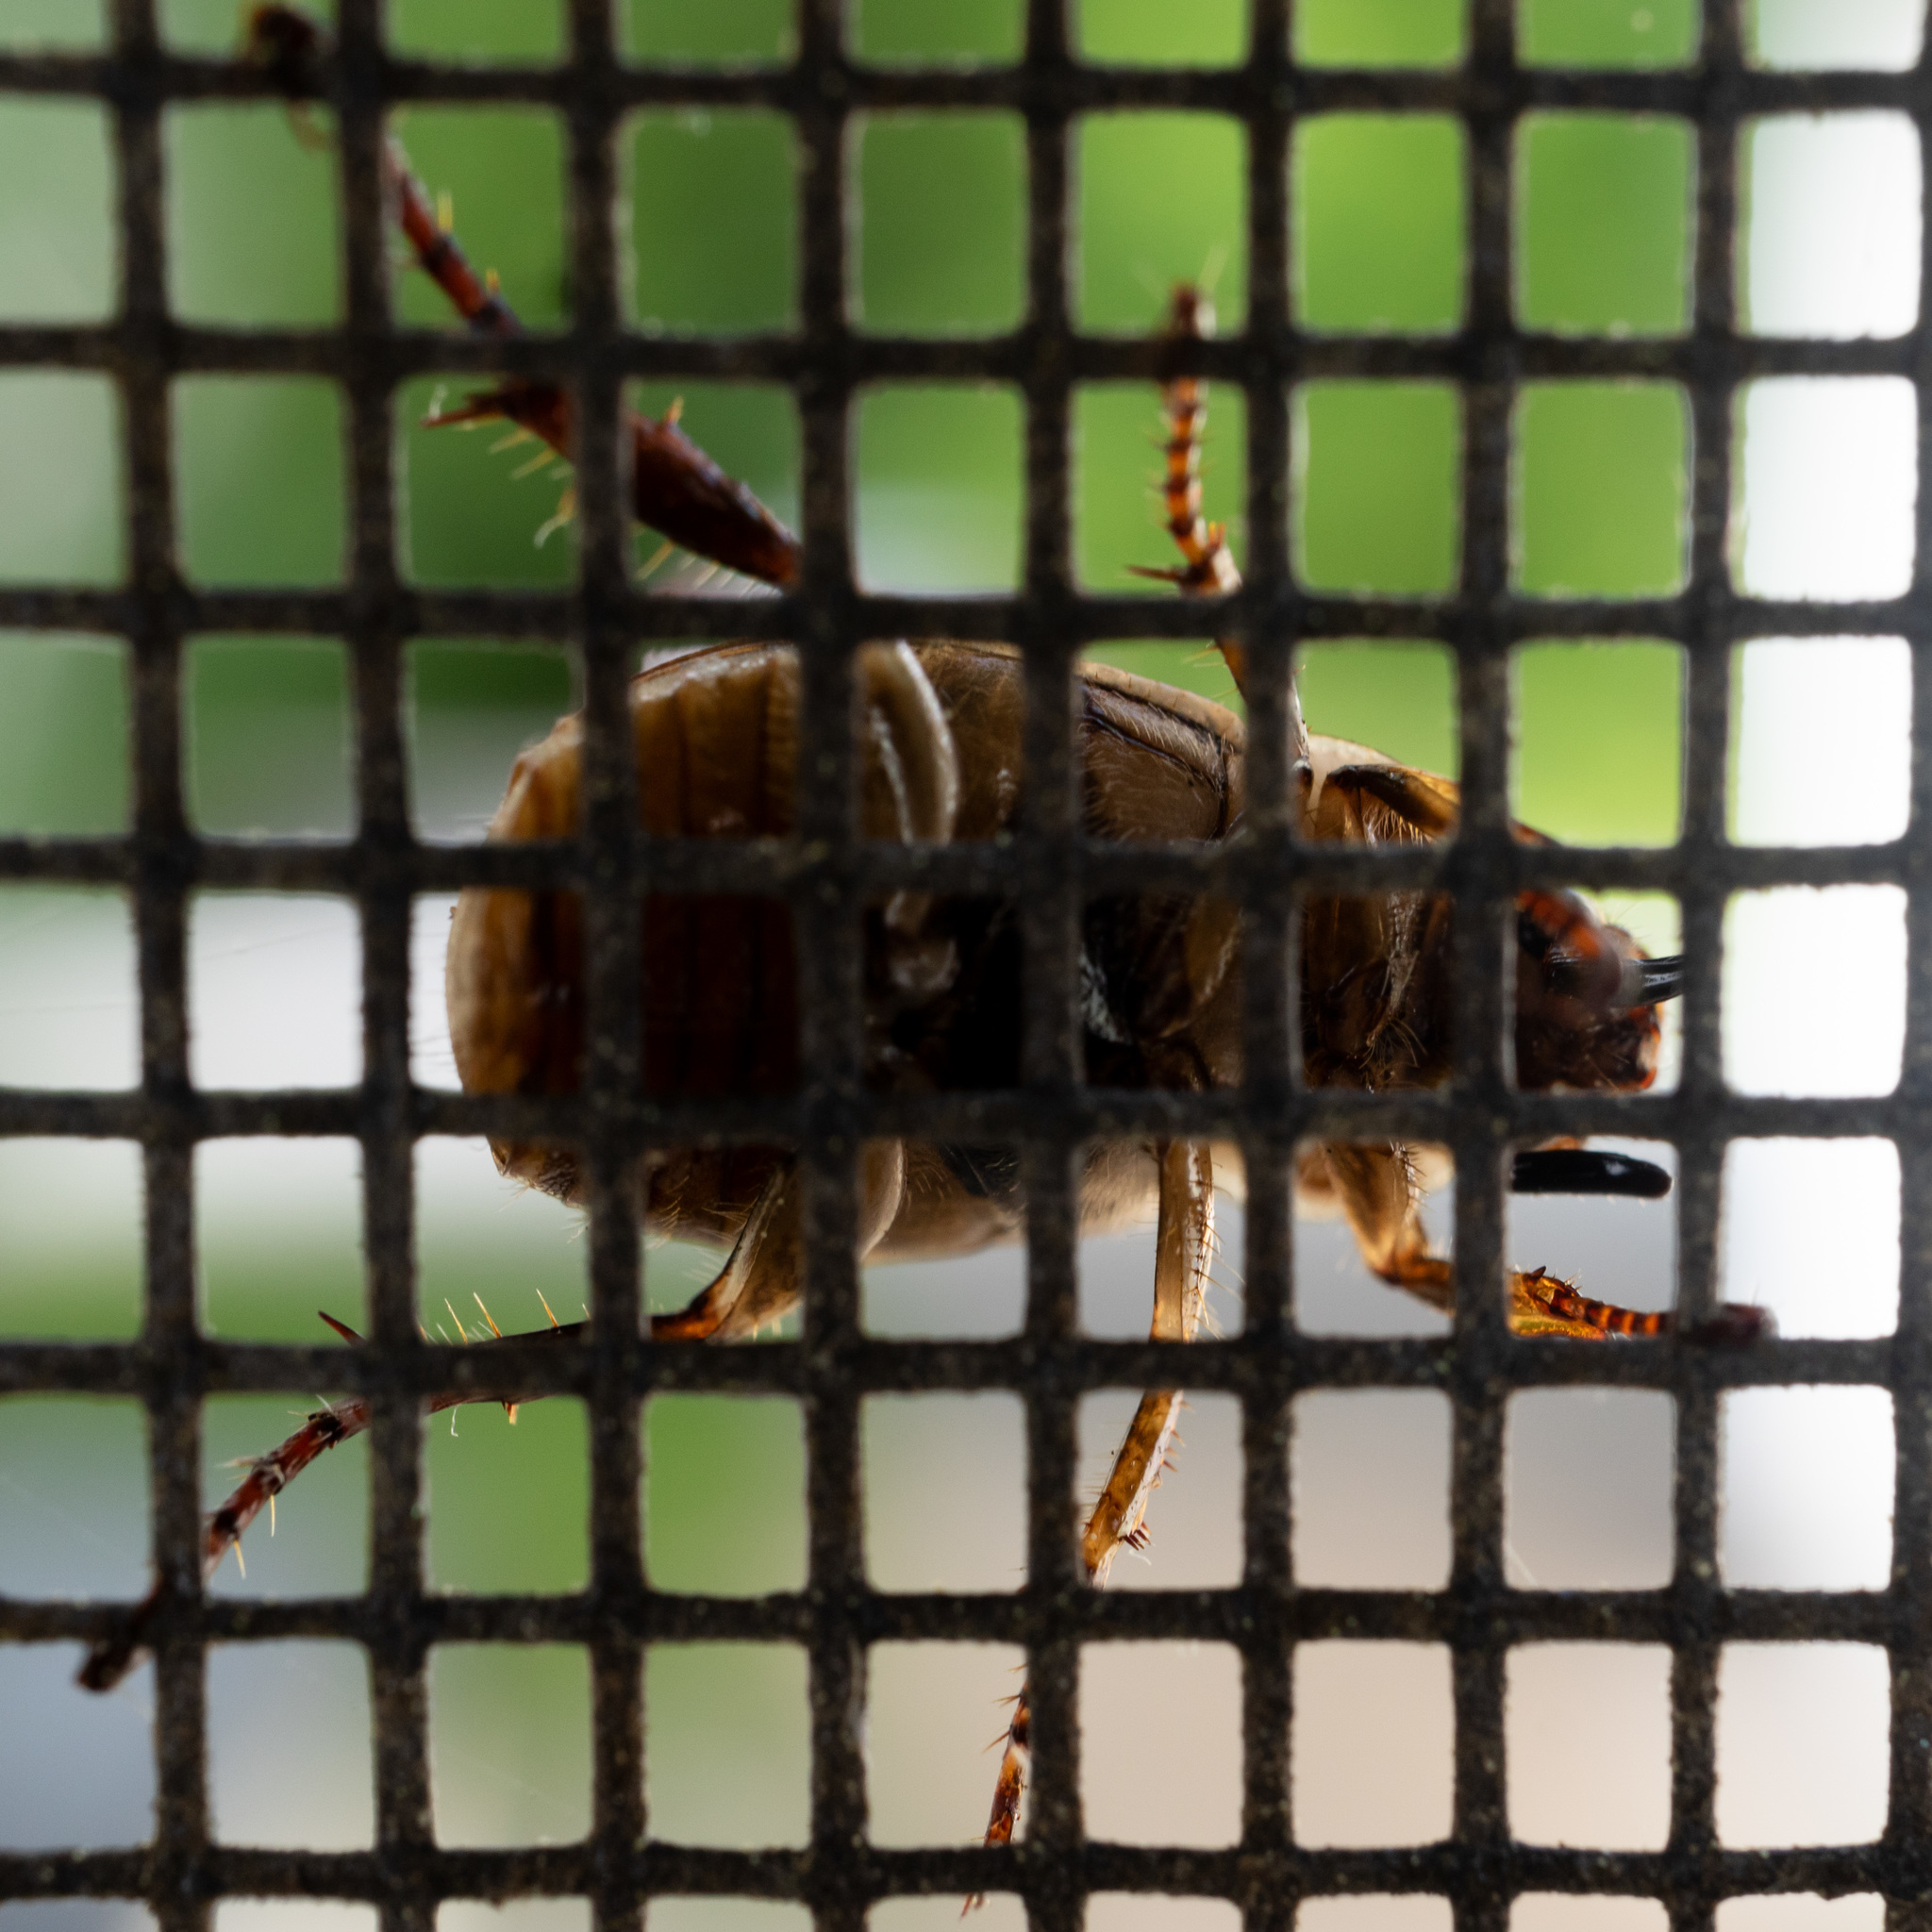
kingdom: Animalia
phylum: Arthropoda
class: Insecta
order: Coleoptera
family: Scarabaeidae
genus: Exomala
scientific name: Exomala orientalis
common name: Oriental beetle
